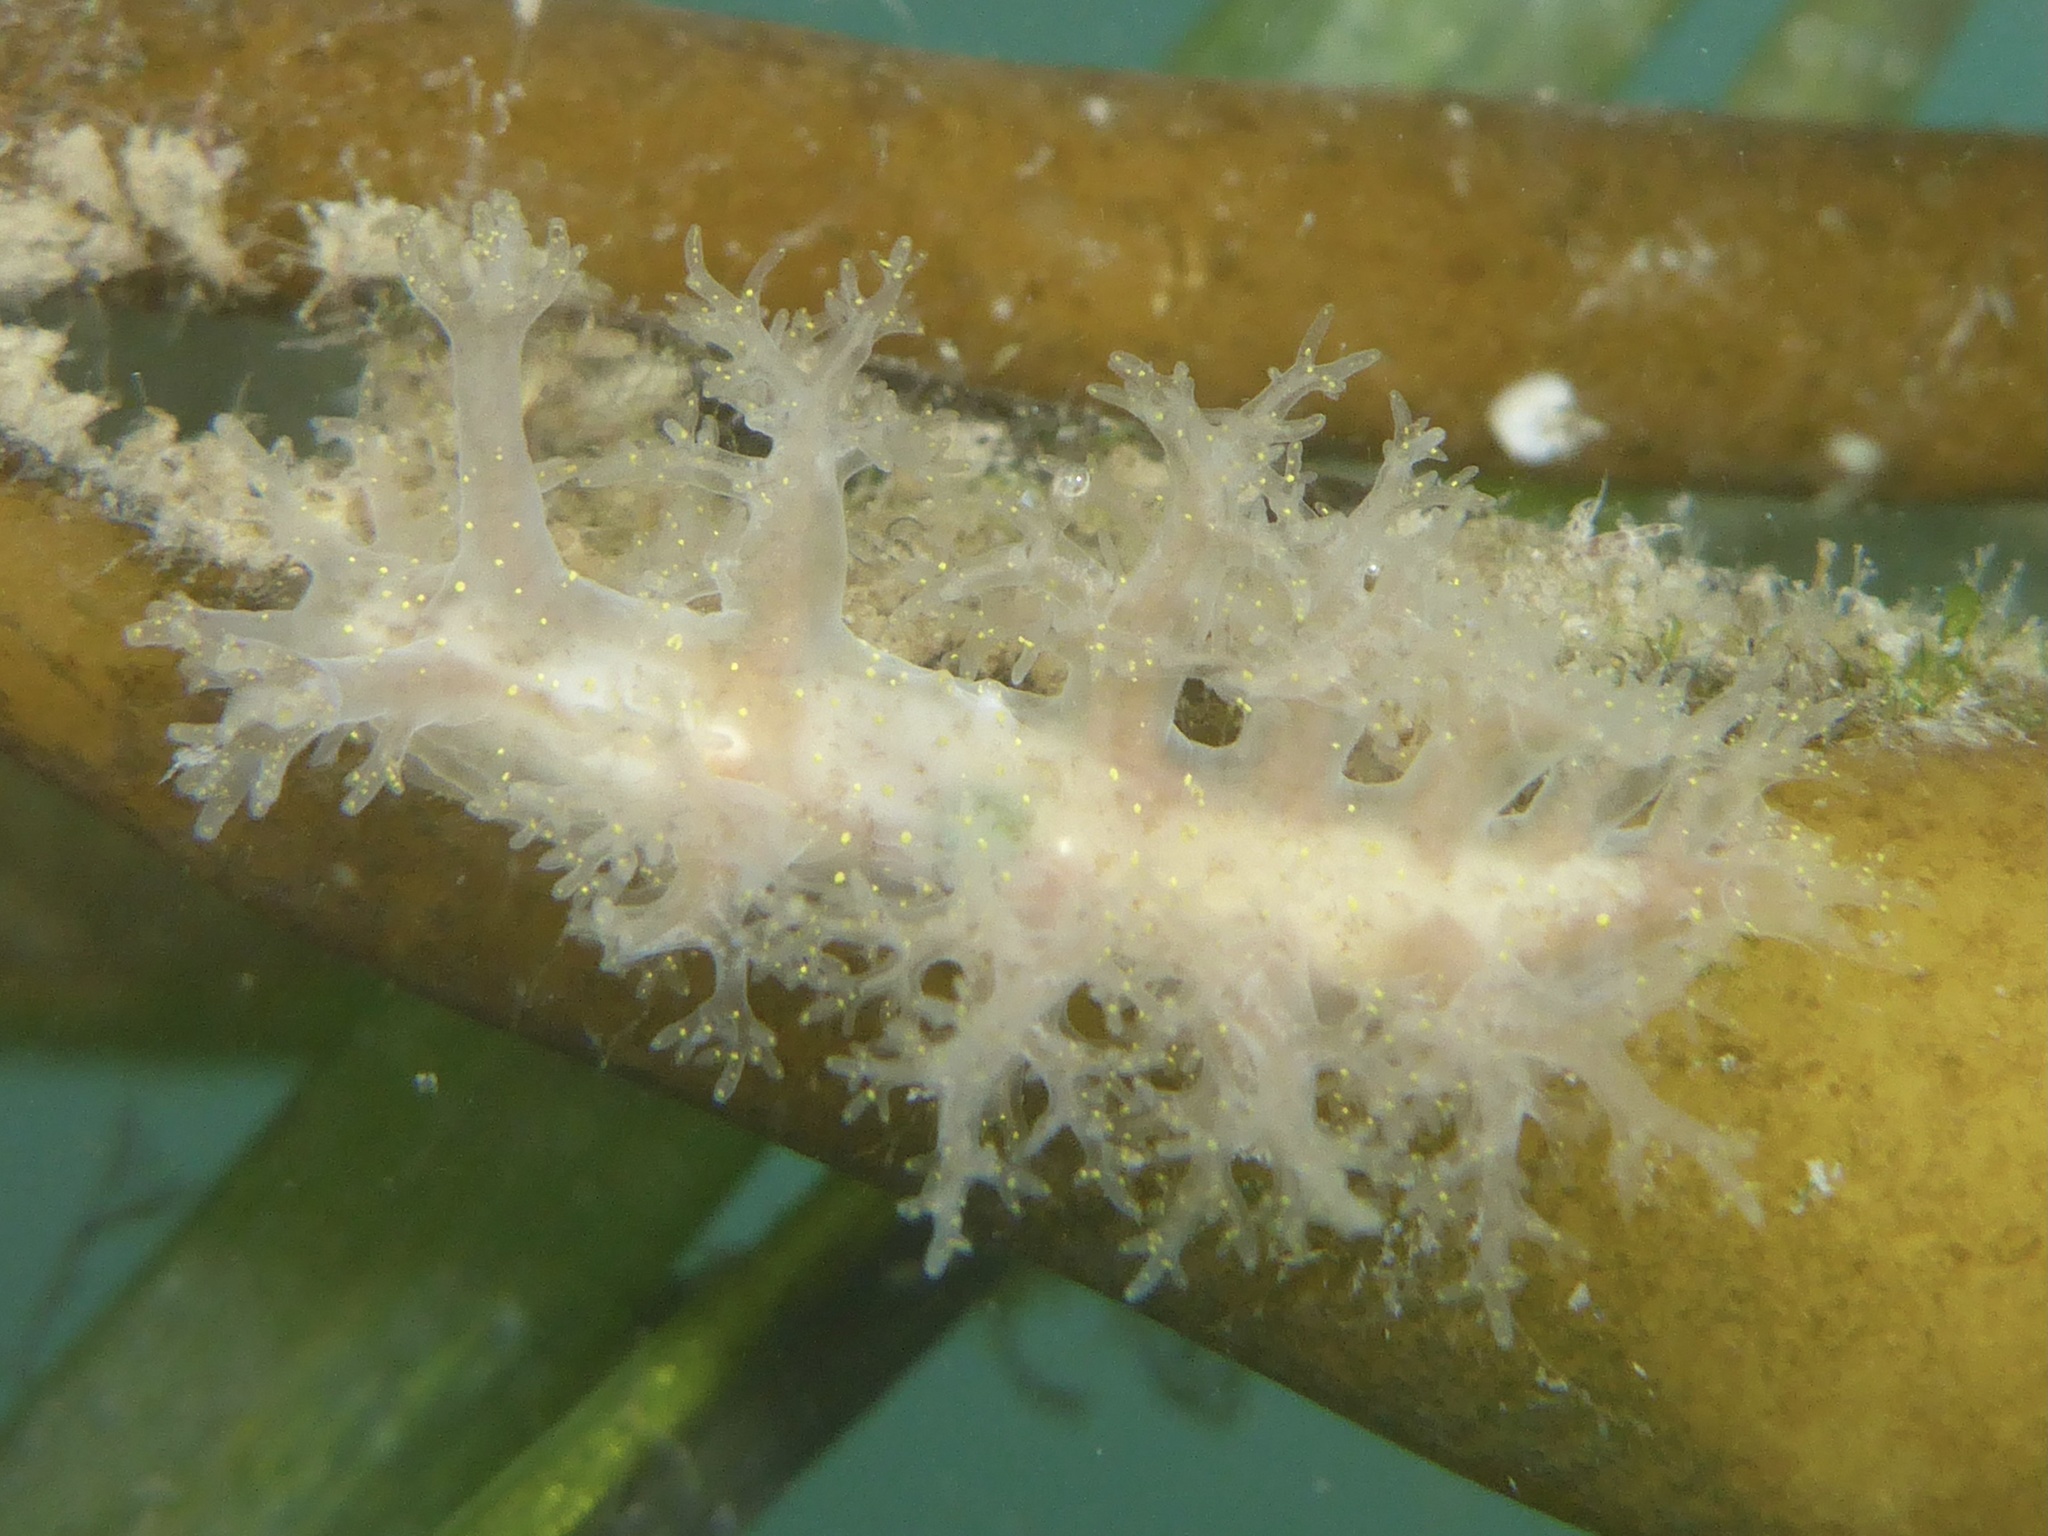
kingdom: Animalia
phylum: Mollusca
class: Gastropoda
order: Nudibranchia
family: Dendronotidae
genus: Dendronotus
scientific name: Dendronotus venustus
